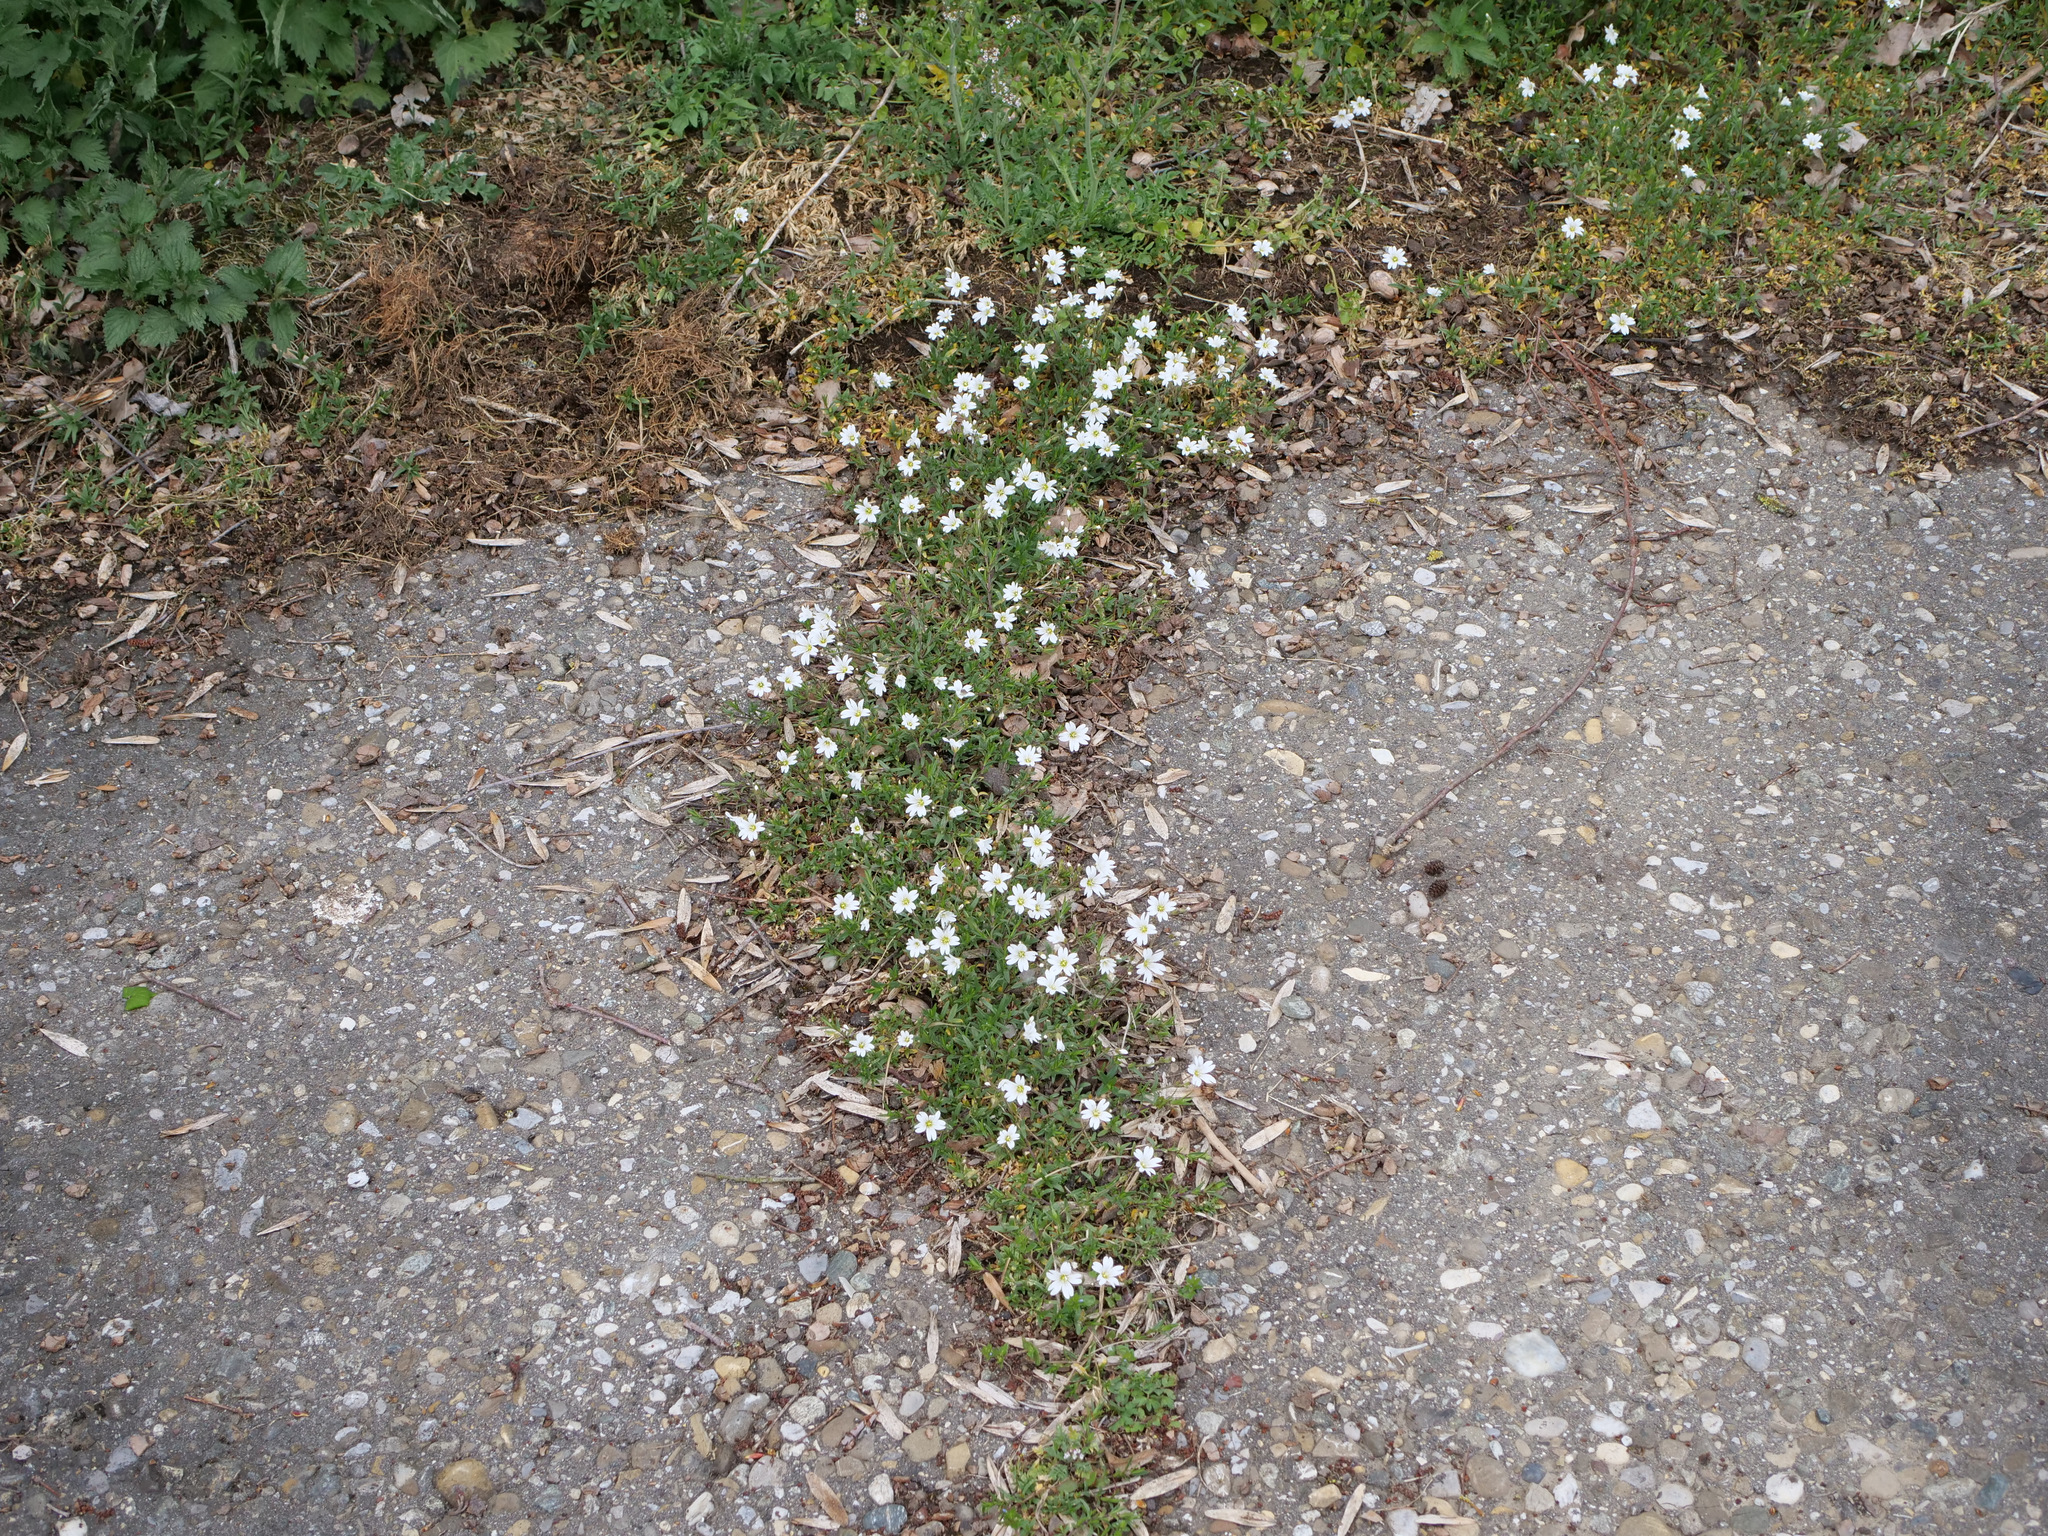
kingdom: Plantae
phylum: Tracheophyta
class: Magnoliopsida
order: Caryophyllales
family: Caryophyllaceae
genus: Cerastium
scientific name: Cerastium arvense
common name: Field mouse-ear
